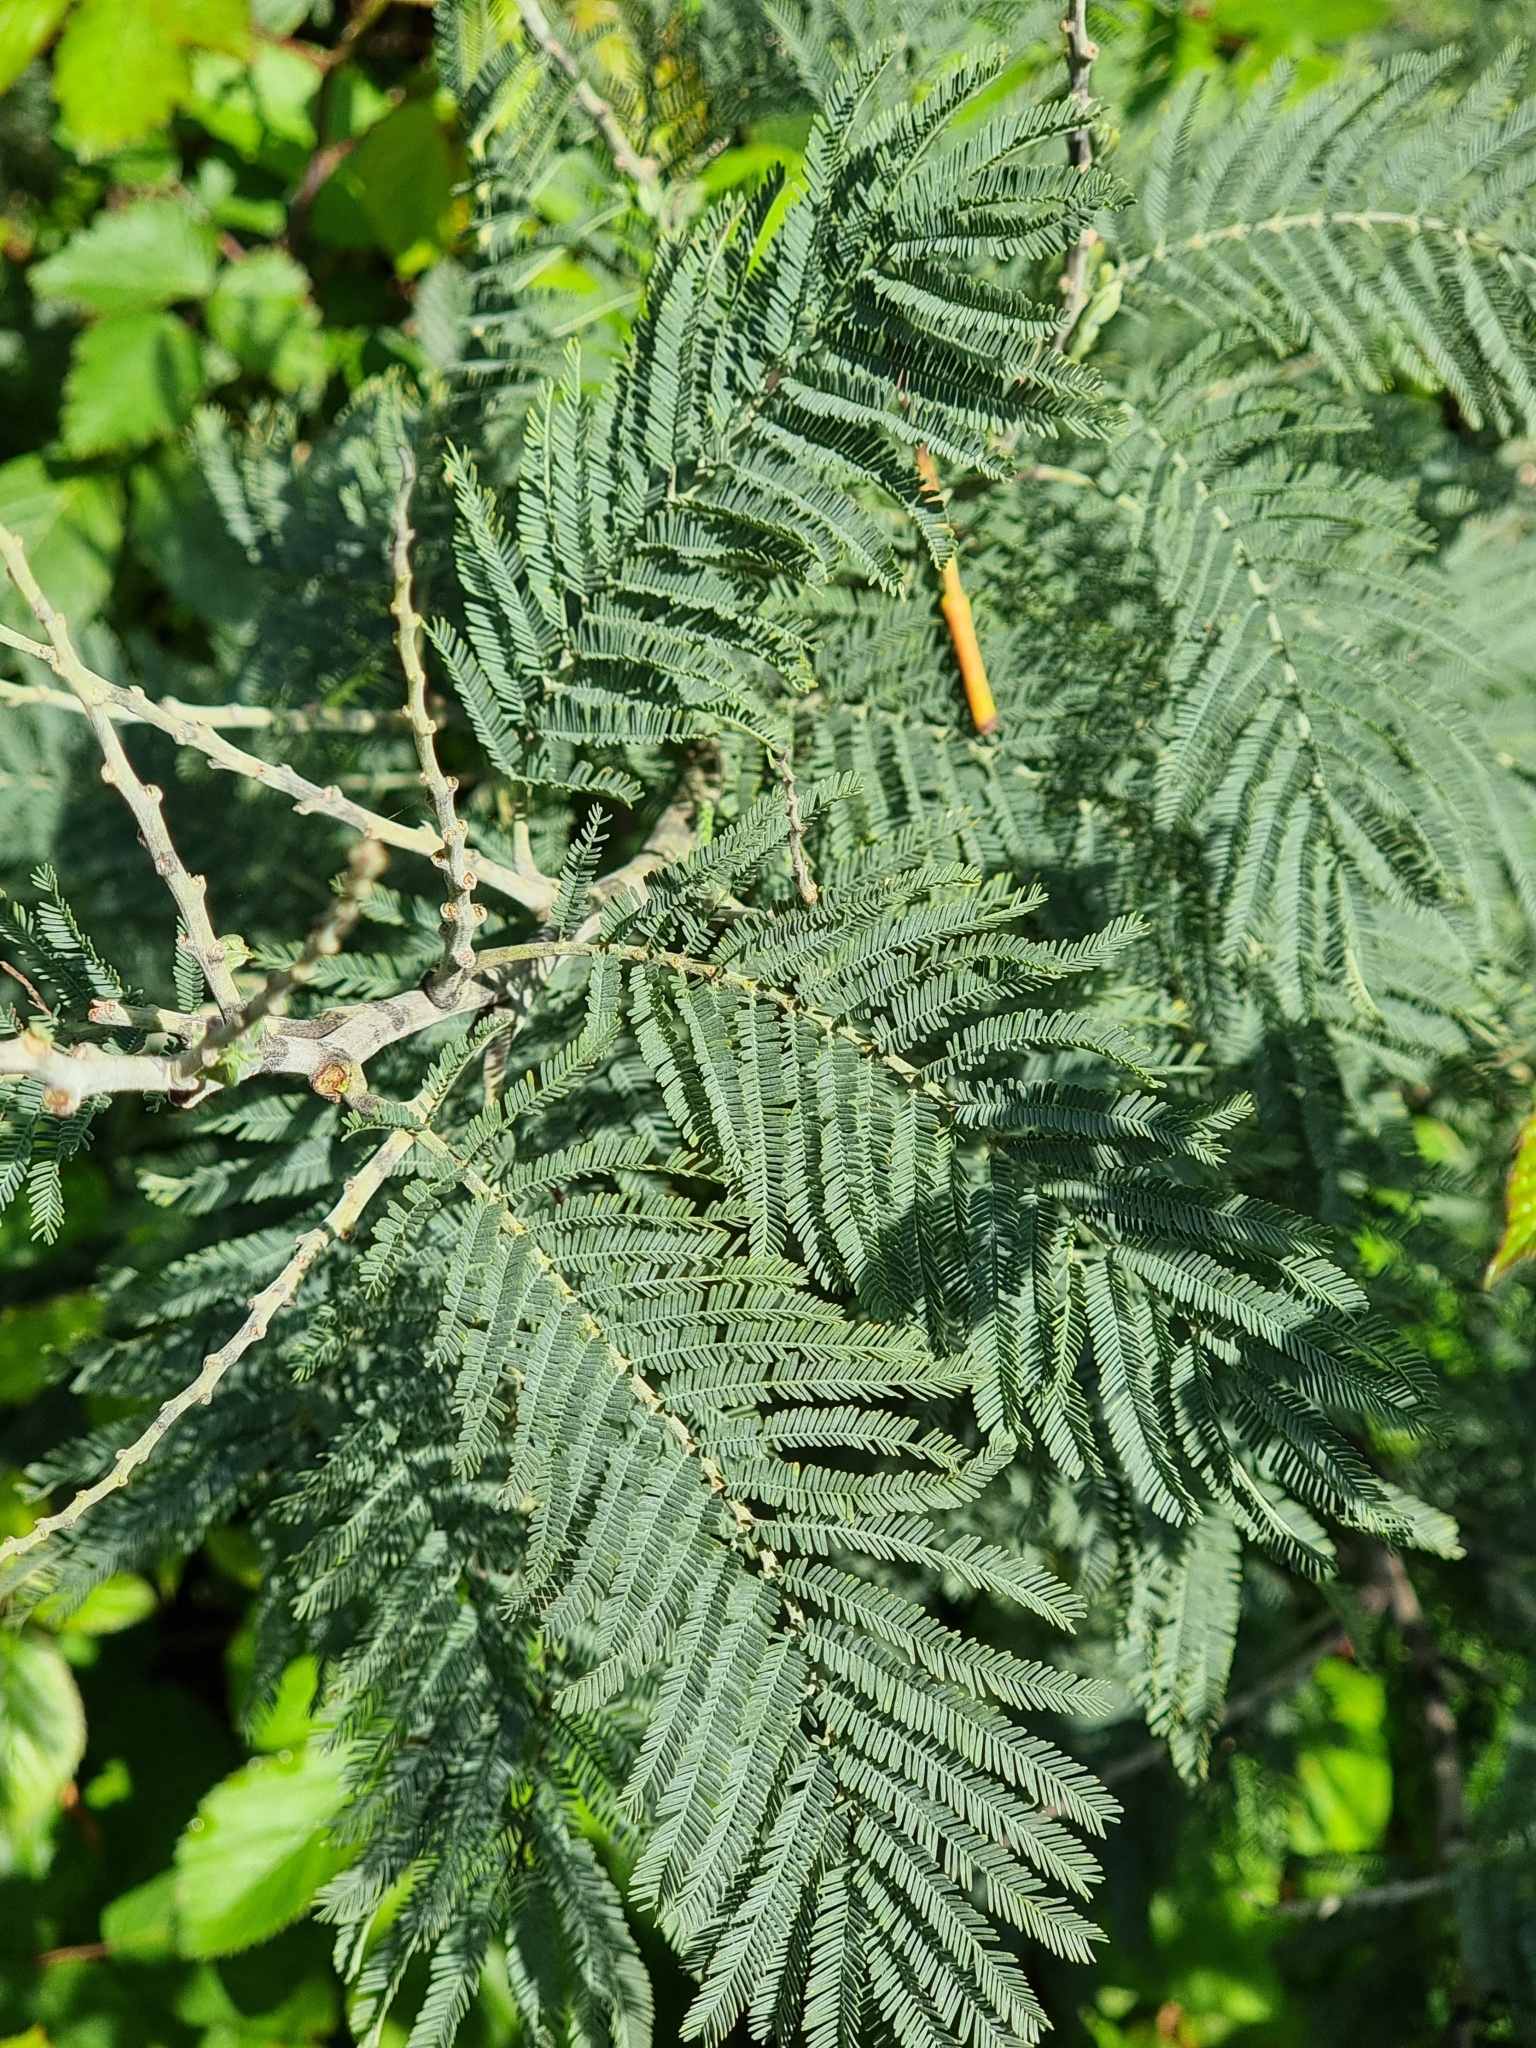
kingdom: Plantae
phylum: Tracheophyta
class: Magnoliopsida
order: Fabales
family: Fabaceae
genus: Acacia
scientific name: Acacia dealbata
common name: Silver wattle
